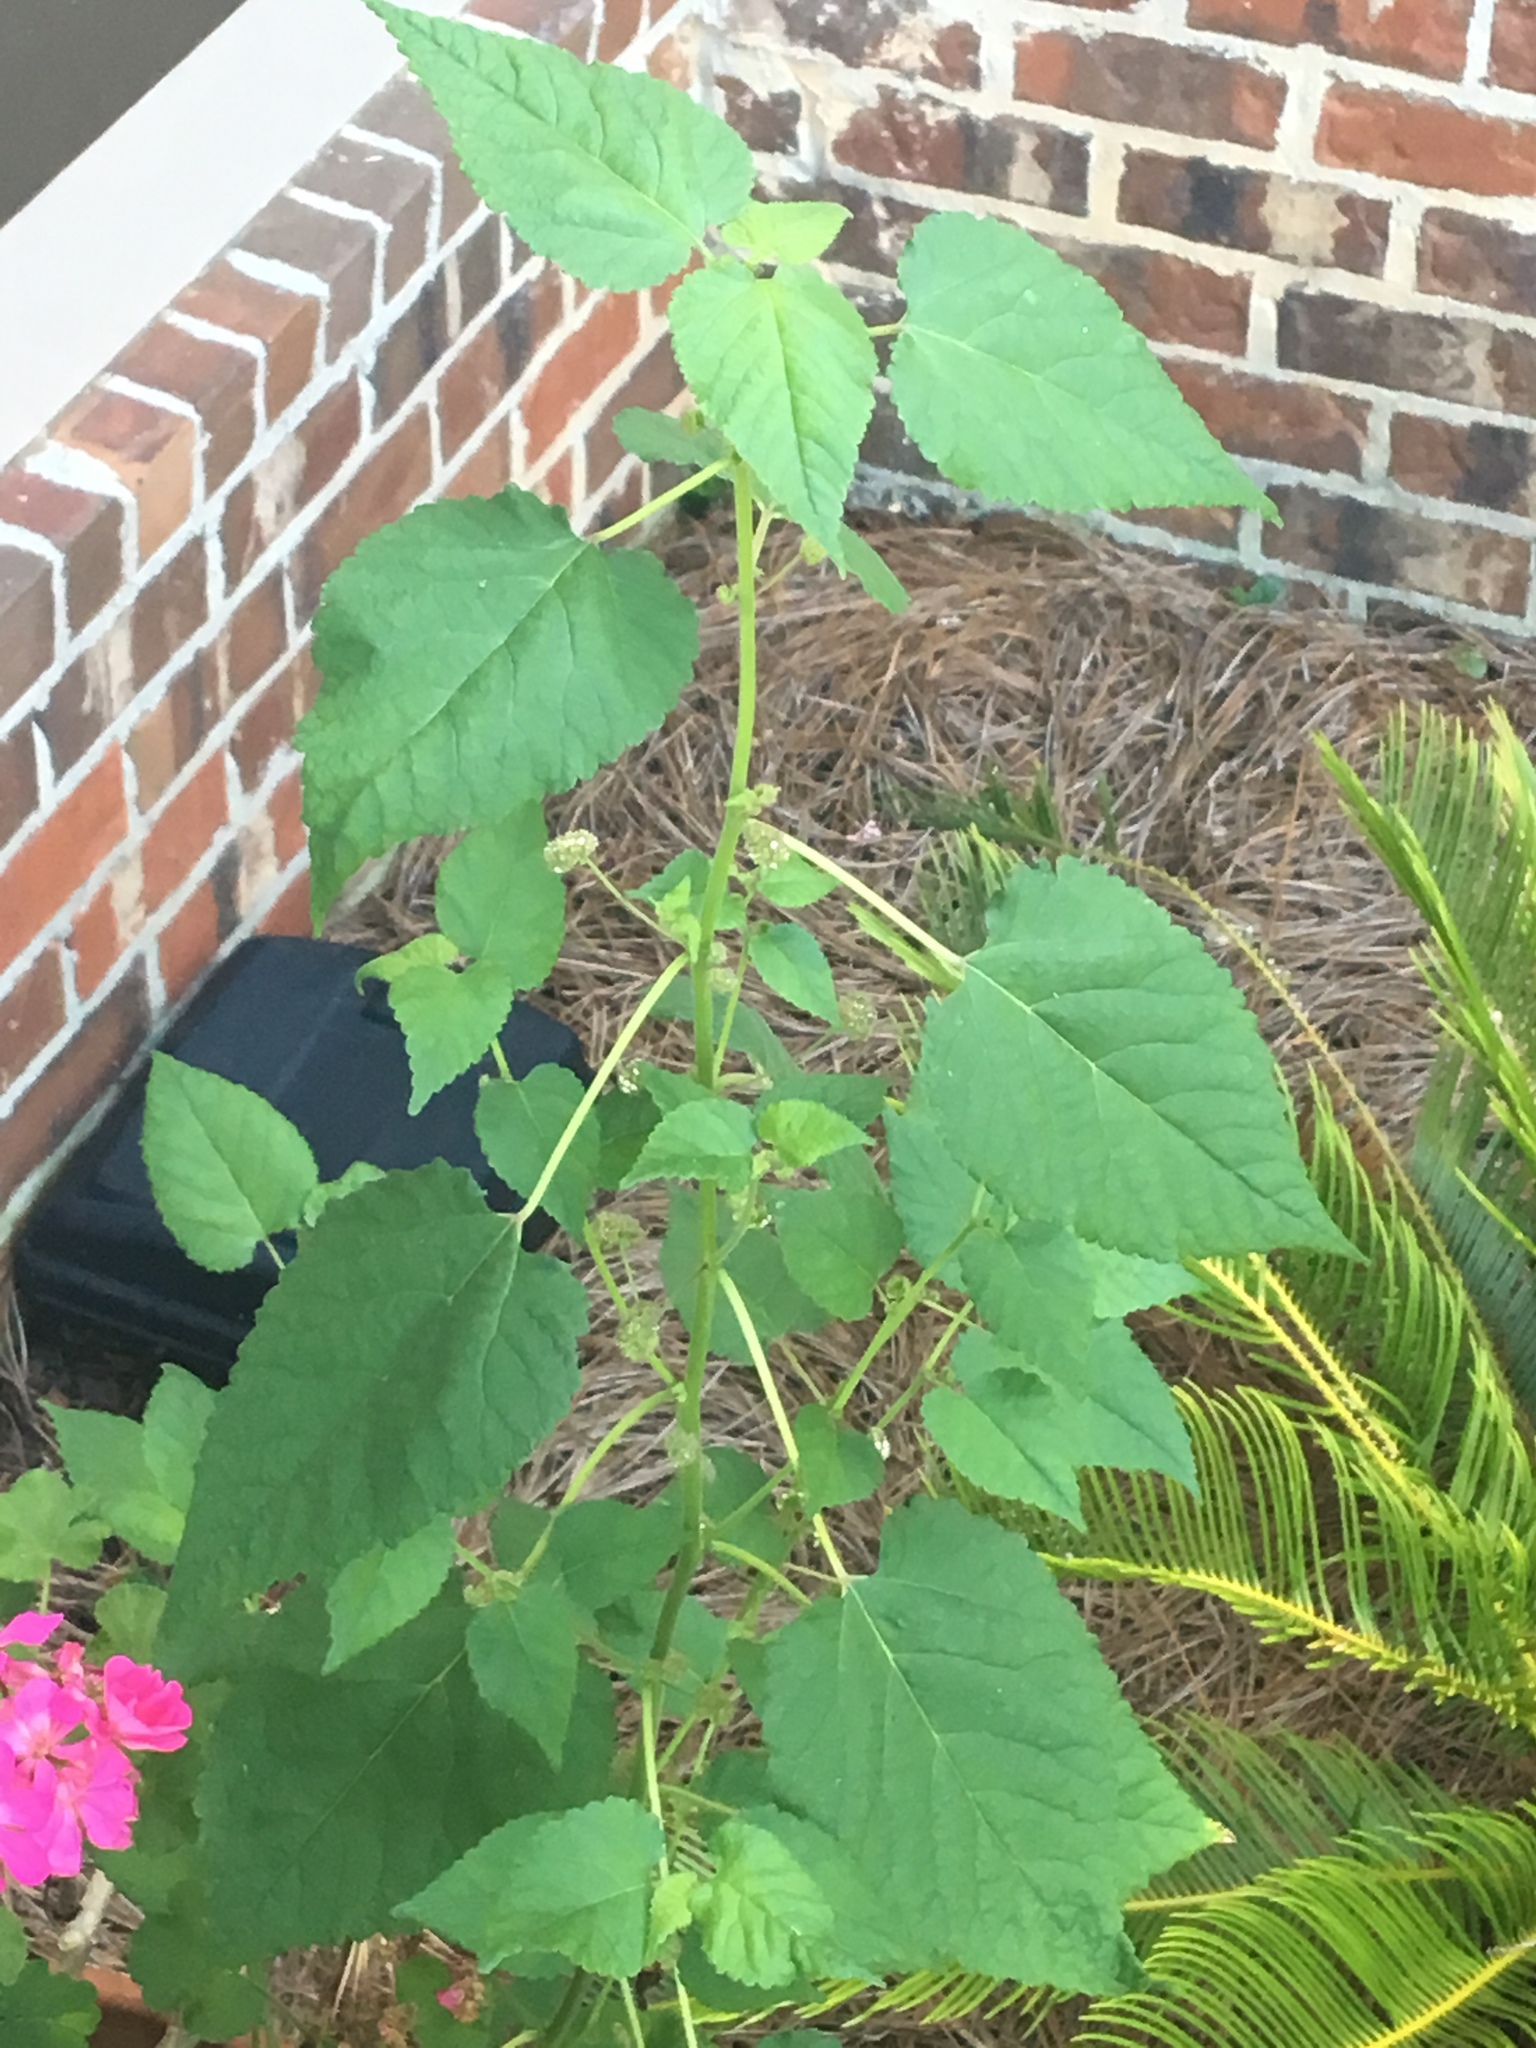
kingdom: Plantae
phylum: Tracheophyta
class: Magnoliopsida
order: Rosales
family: Moraceae
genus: Fatoua
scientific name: Fatoua villosa
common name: Hairy crabweed
